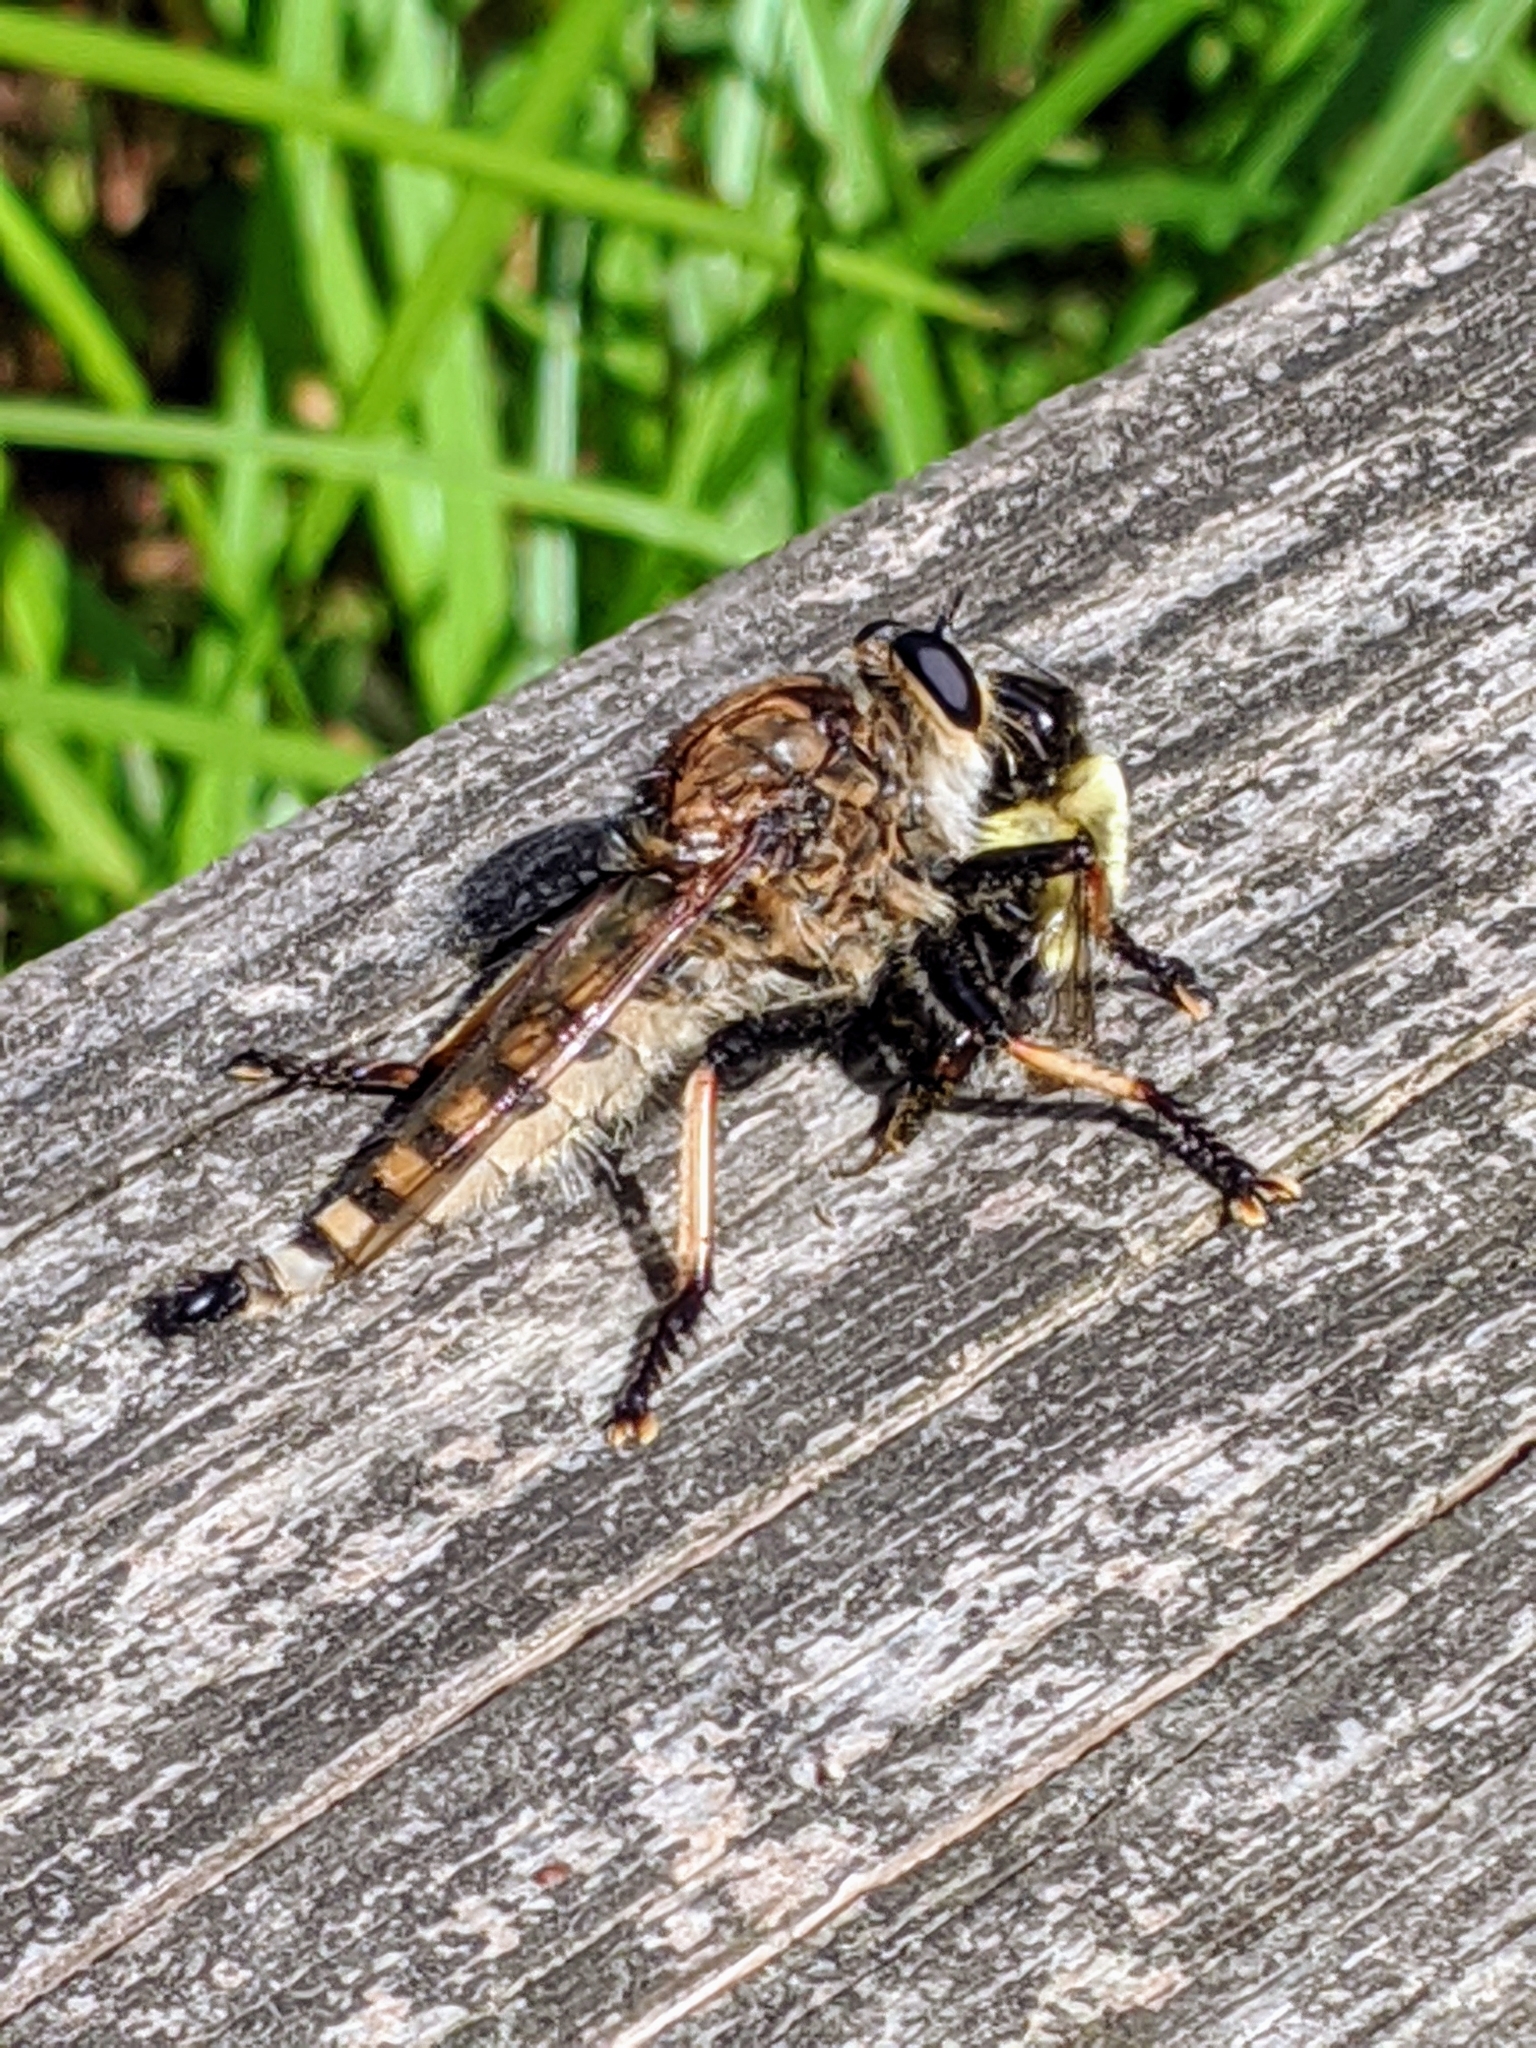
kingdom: Animalia
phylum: Arthropoda
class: Insecta
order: Diptera
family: Asilidae
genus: Promachus
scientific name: Promachus rufipes
